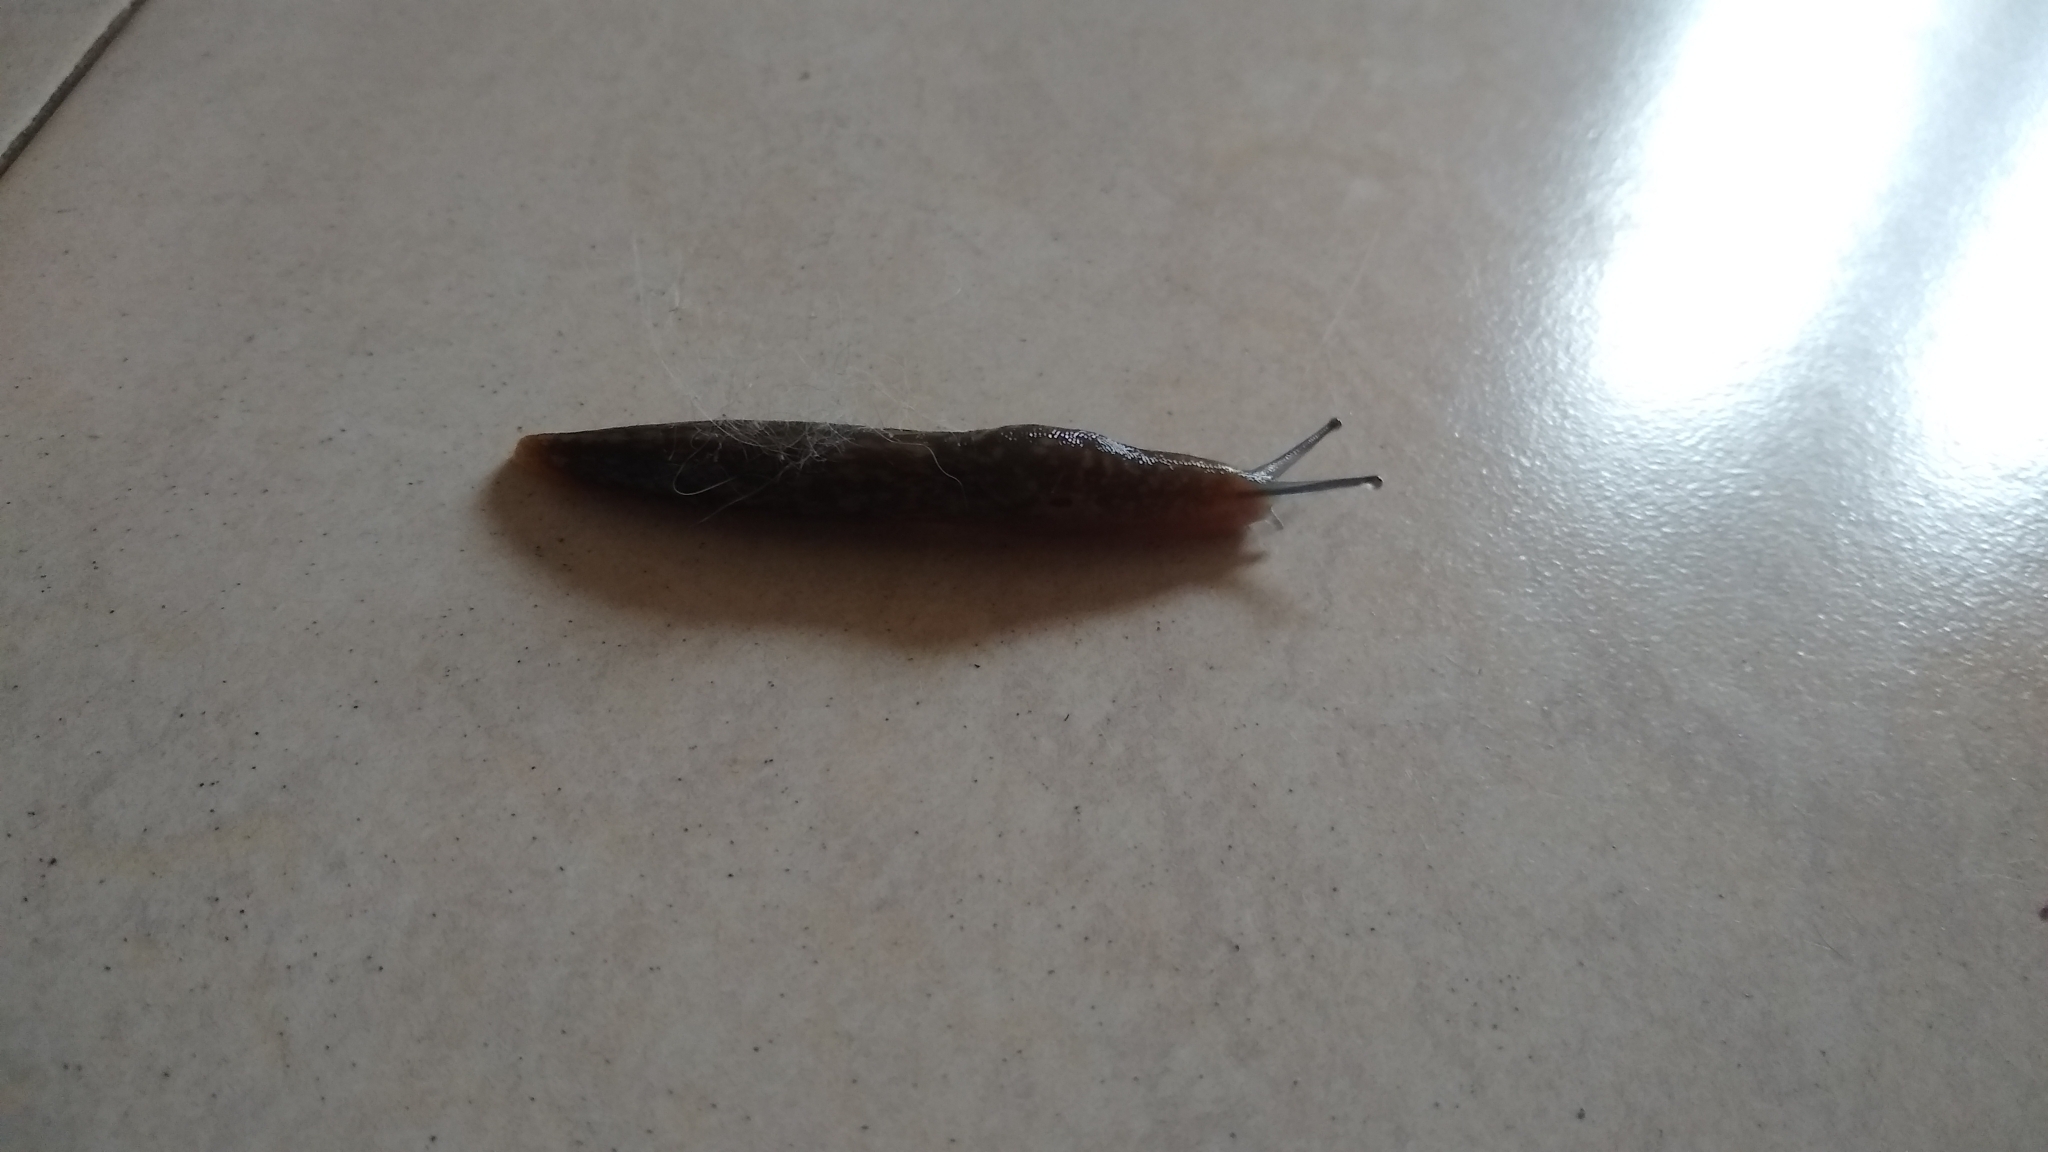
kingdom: Animalia
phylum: Mollusca
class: Gastropoda
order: Stylommatophora
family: Limacidae
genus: Limacus
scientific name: Limacus flavus
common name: Yellow gardenslug
